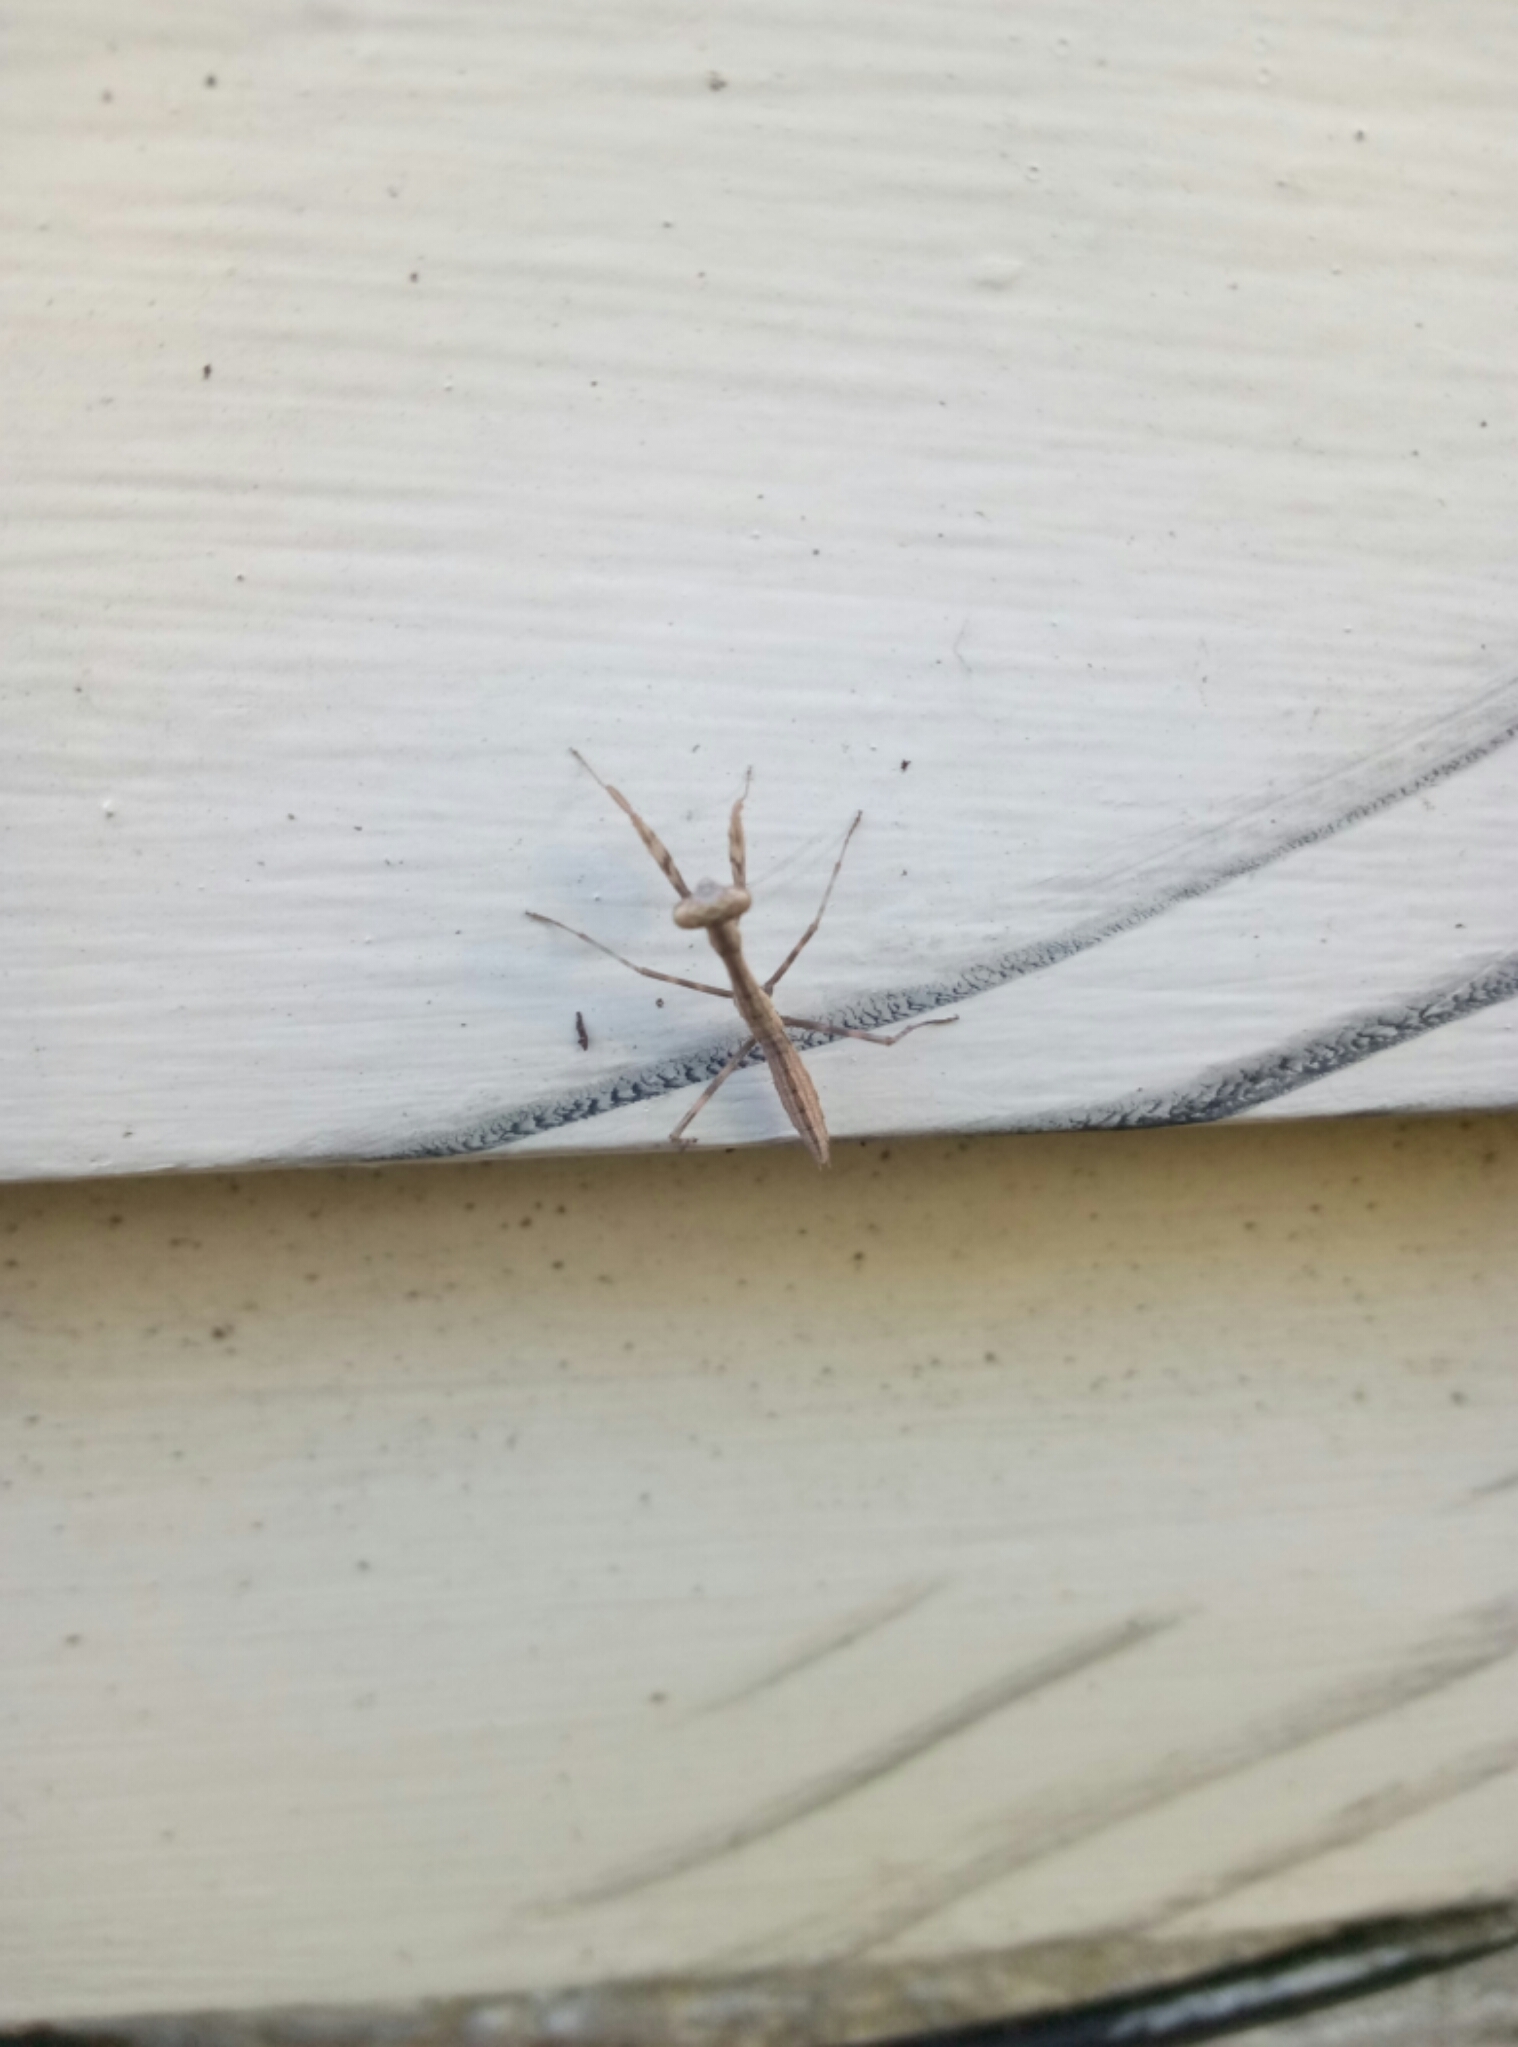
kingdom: Animalia
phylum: Arthropoda
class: Insecta
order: Mantodea
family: Miomantidae
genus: Miomantis
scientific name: Miomantis caffra
